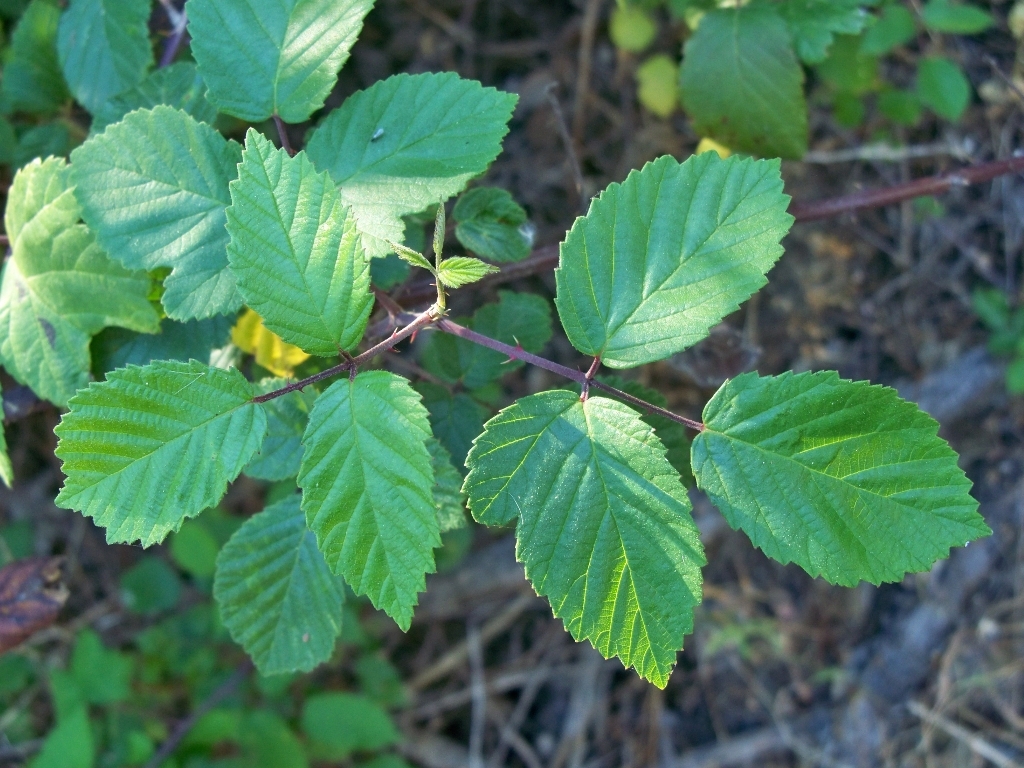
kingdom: Plantae
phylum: Tracheophyta
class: Magnoliopsida
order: Rosales
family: Rosaceae
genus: Rubus
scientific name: Rubus ulmifolius
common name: Elmleaf blackberry
